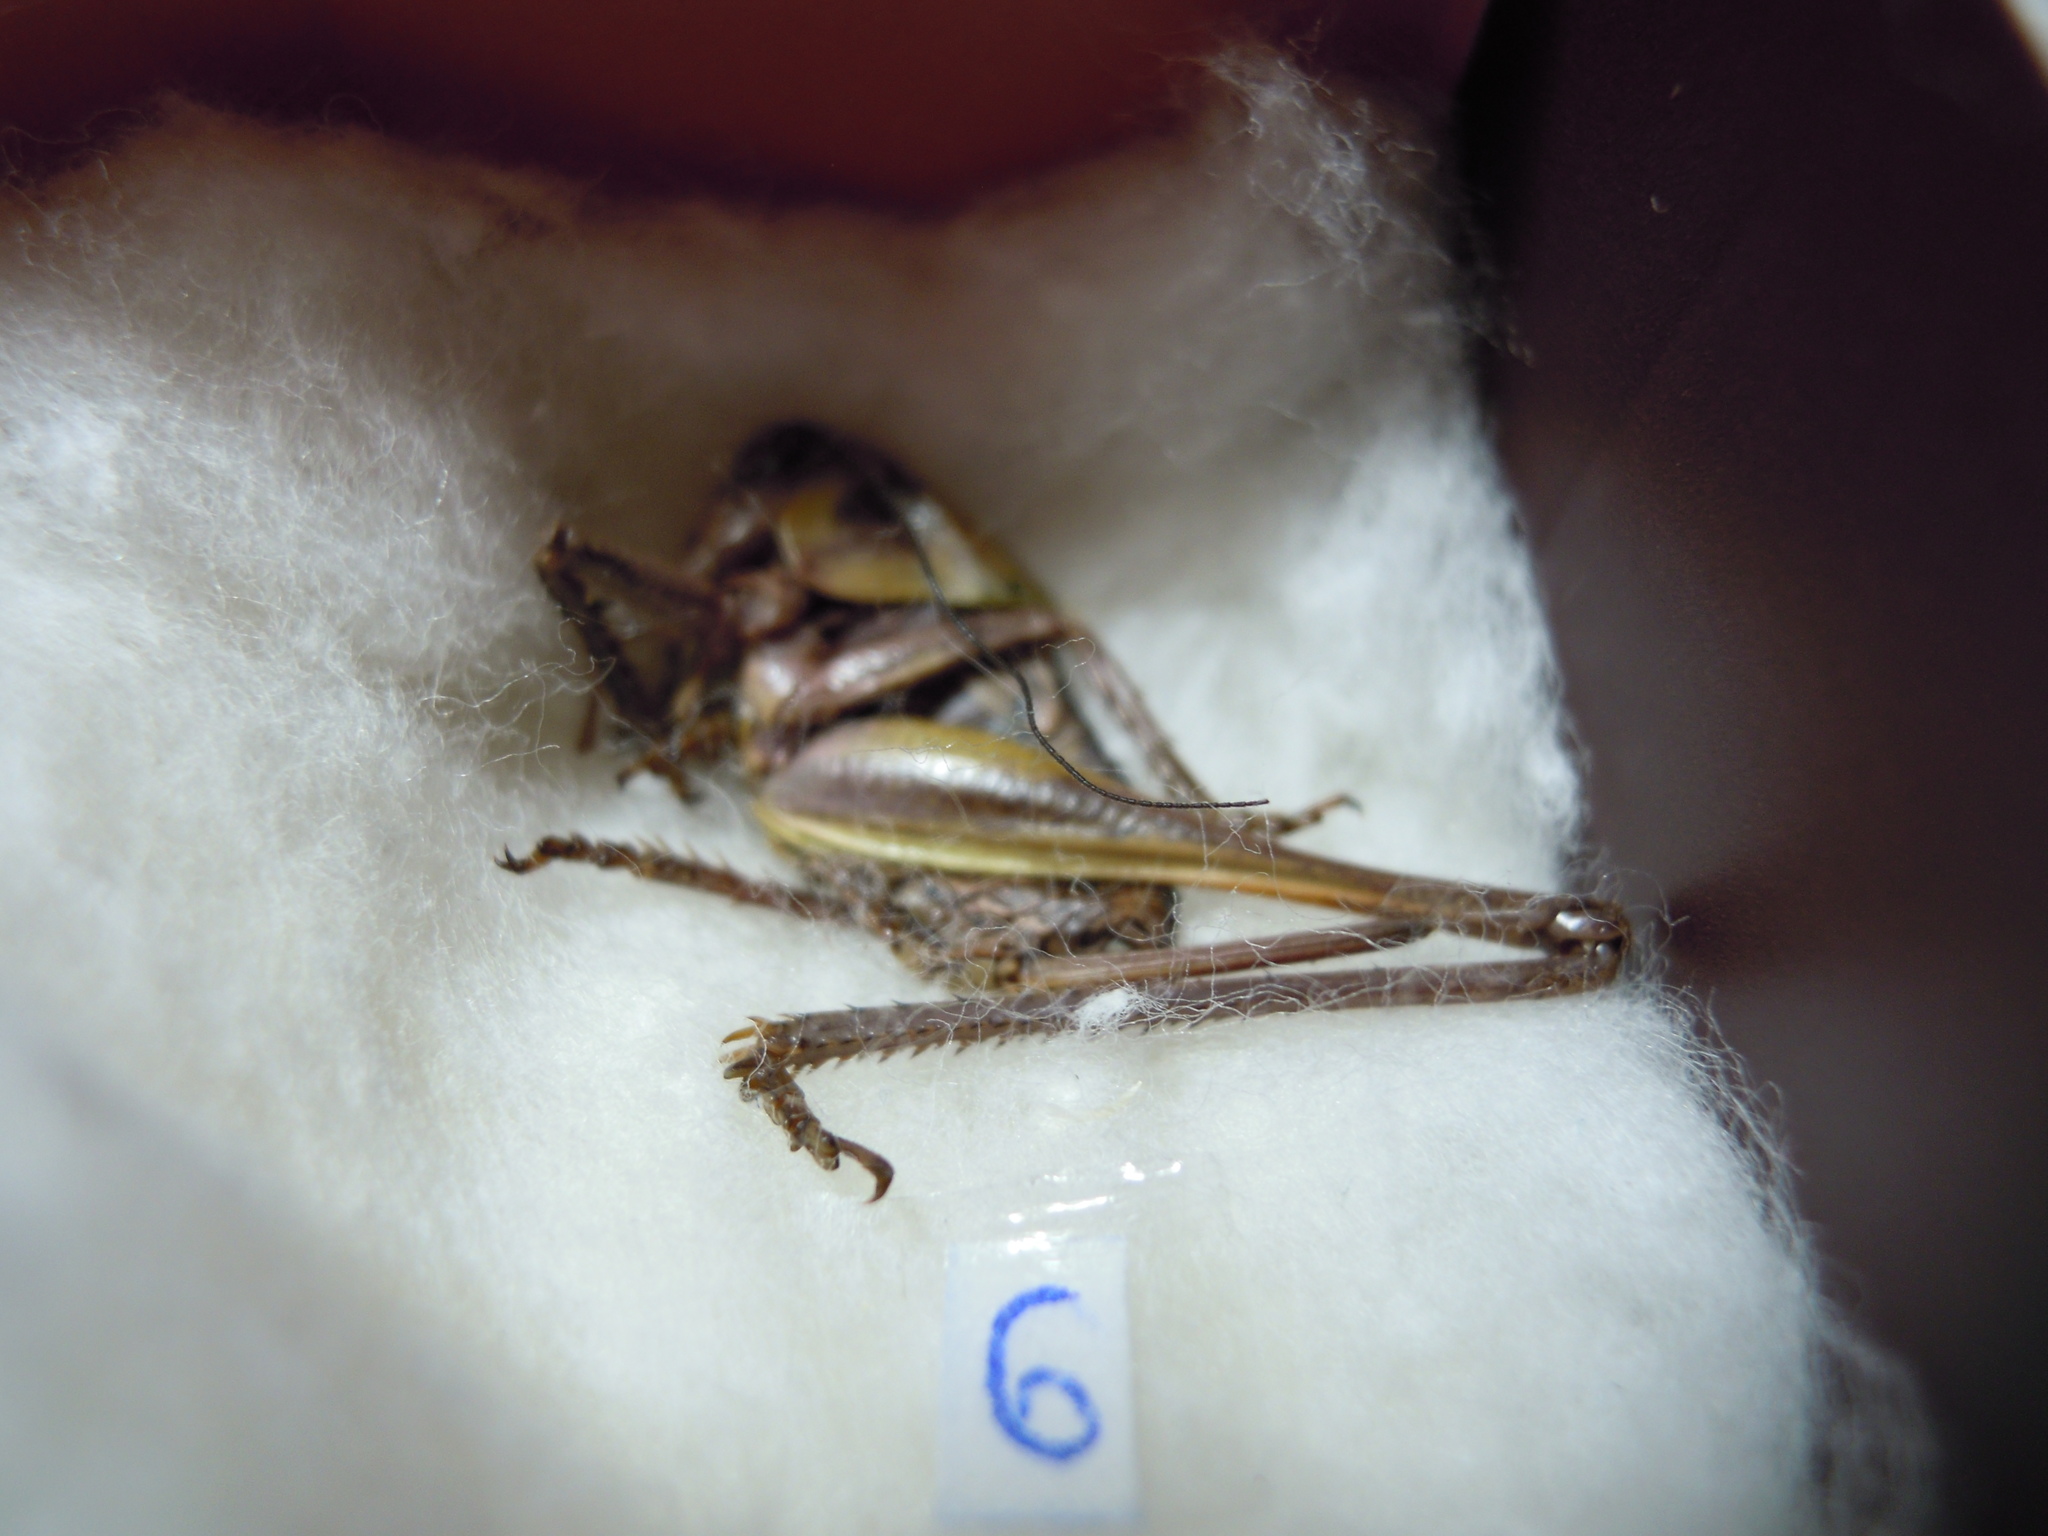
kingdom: Animalia
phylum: Arthropoda
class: Insecta
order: Orthoptera
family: Tettigoniidae
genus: Decticus
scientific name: Decticus verrucivorus
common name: Wart-biter
